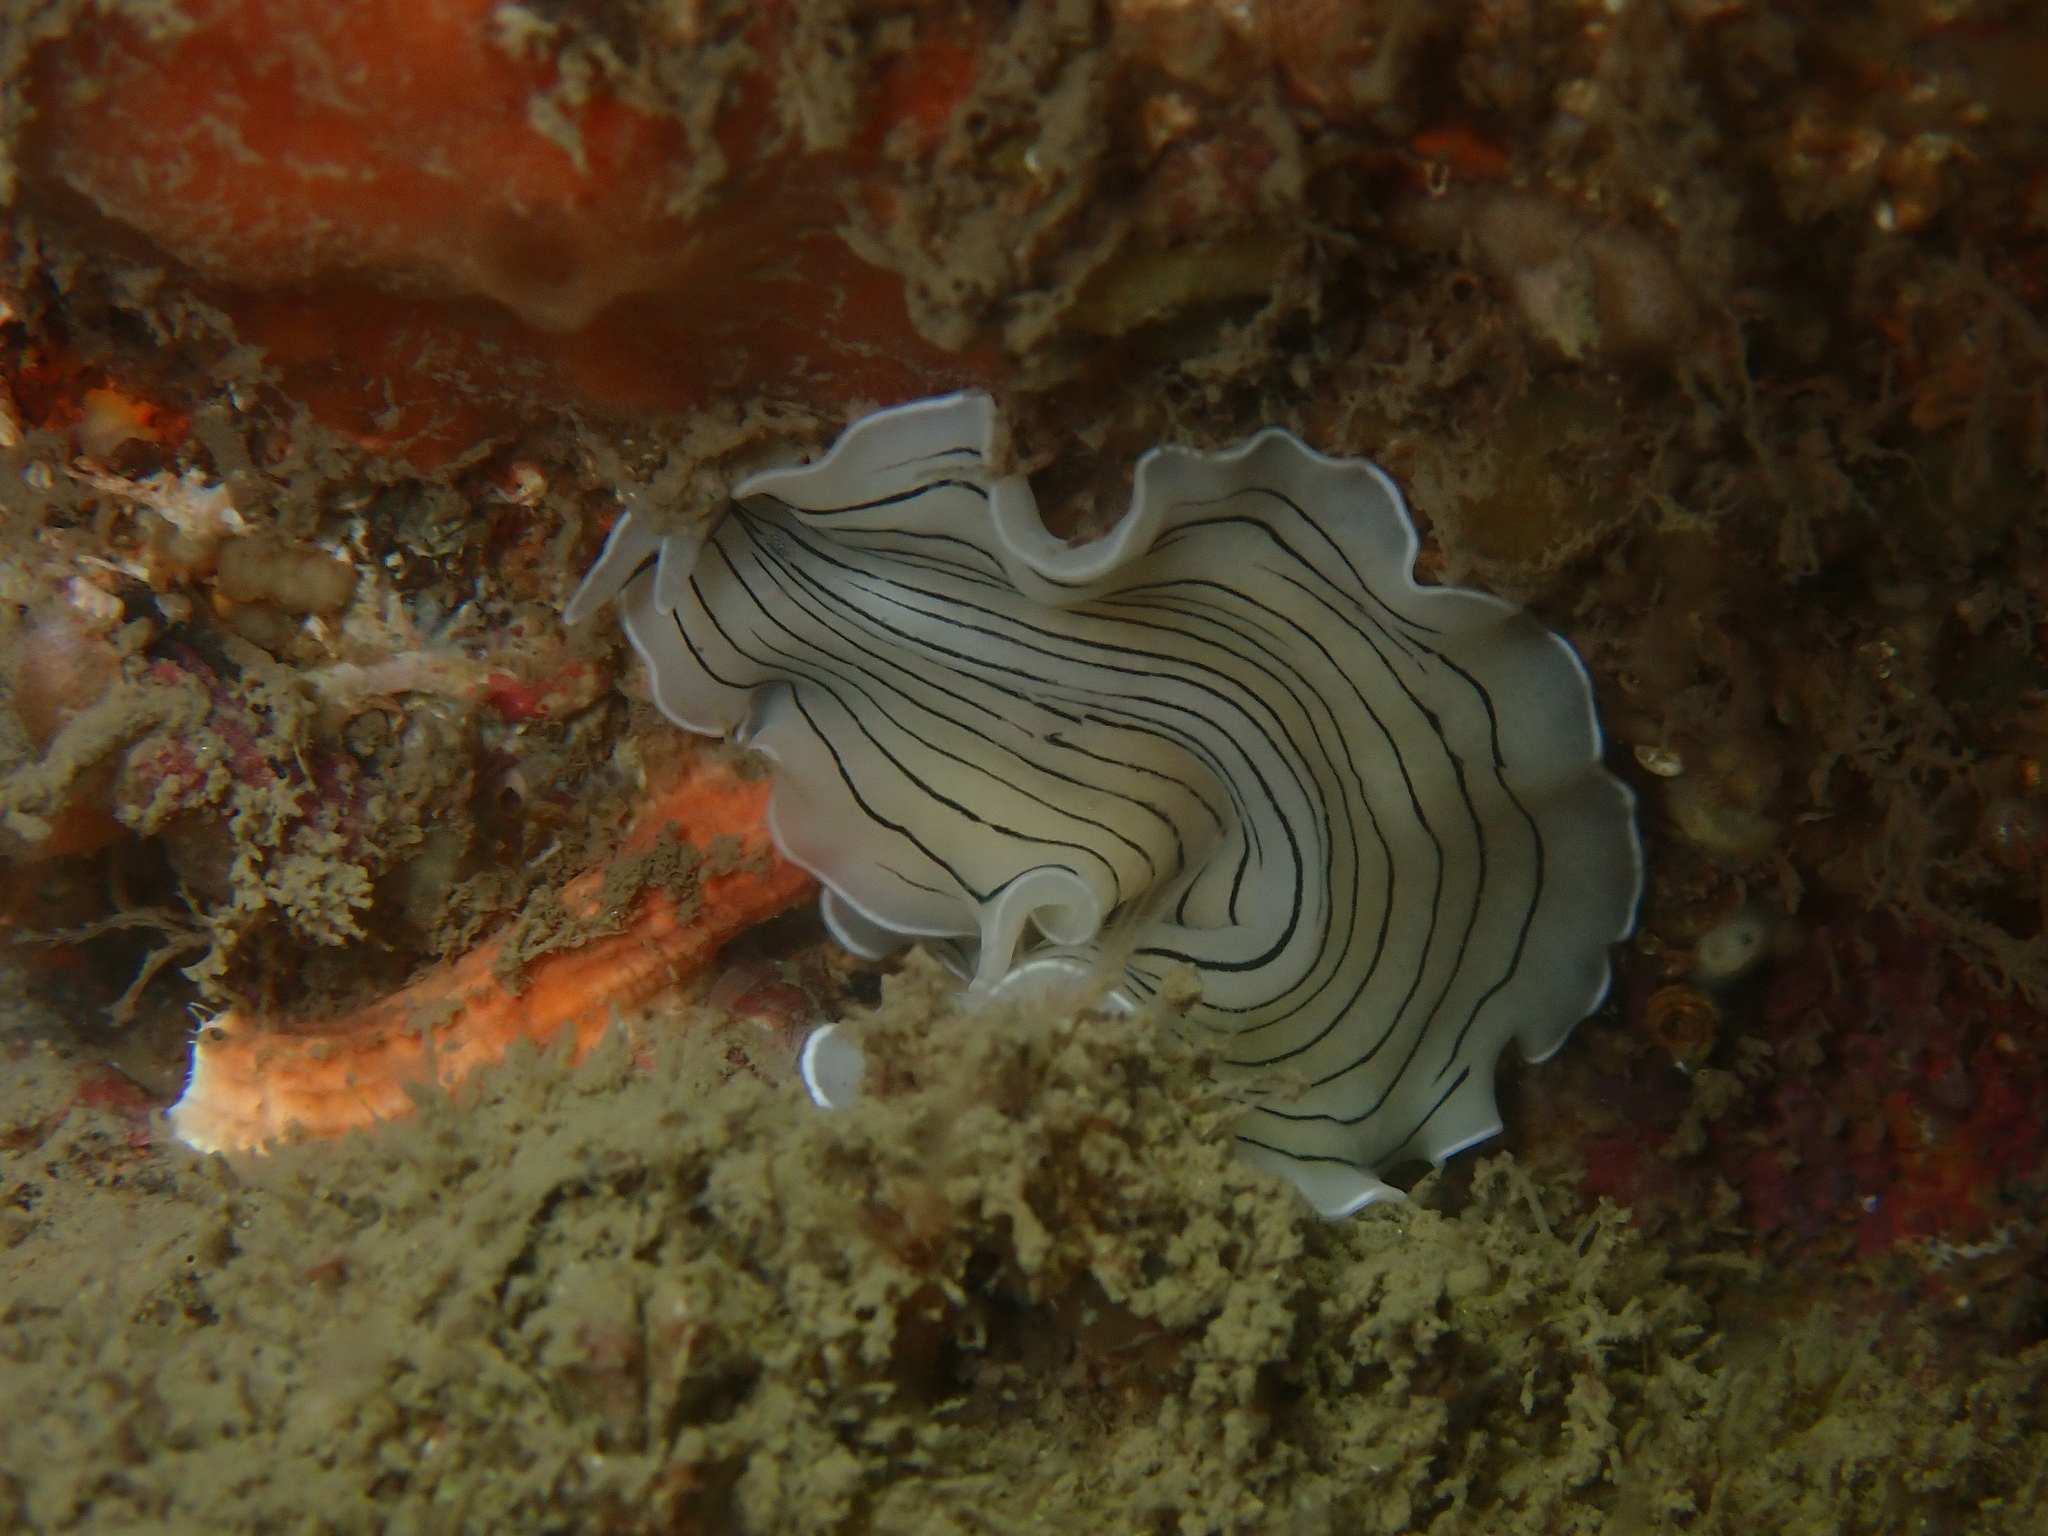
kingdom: Animalia
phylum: Platyhelminthes
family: Euryleptidae
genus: Prostheceraeus
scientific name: Prostheceraeus vittatus
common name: Candy striped flatworm
